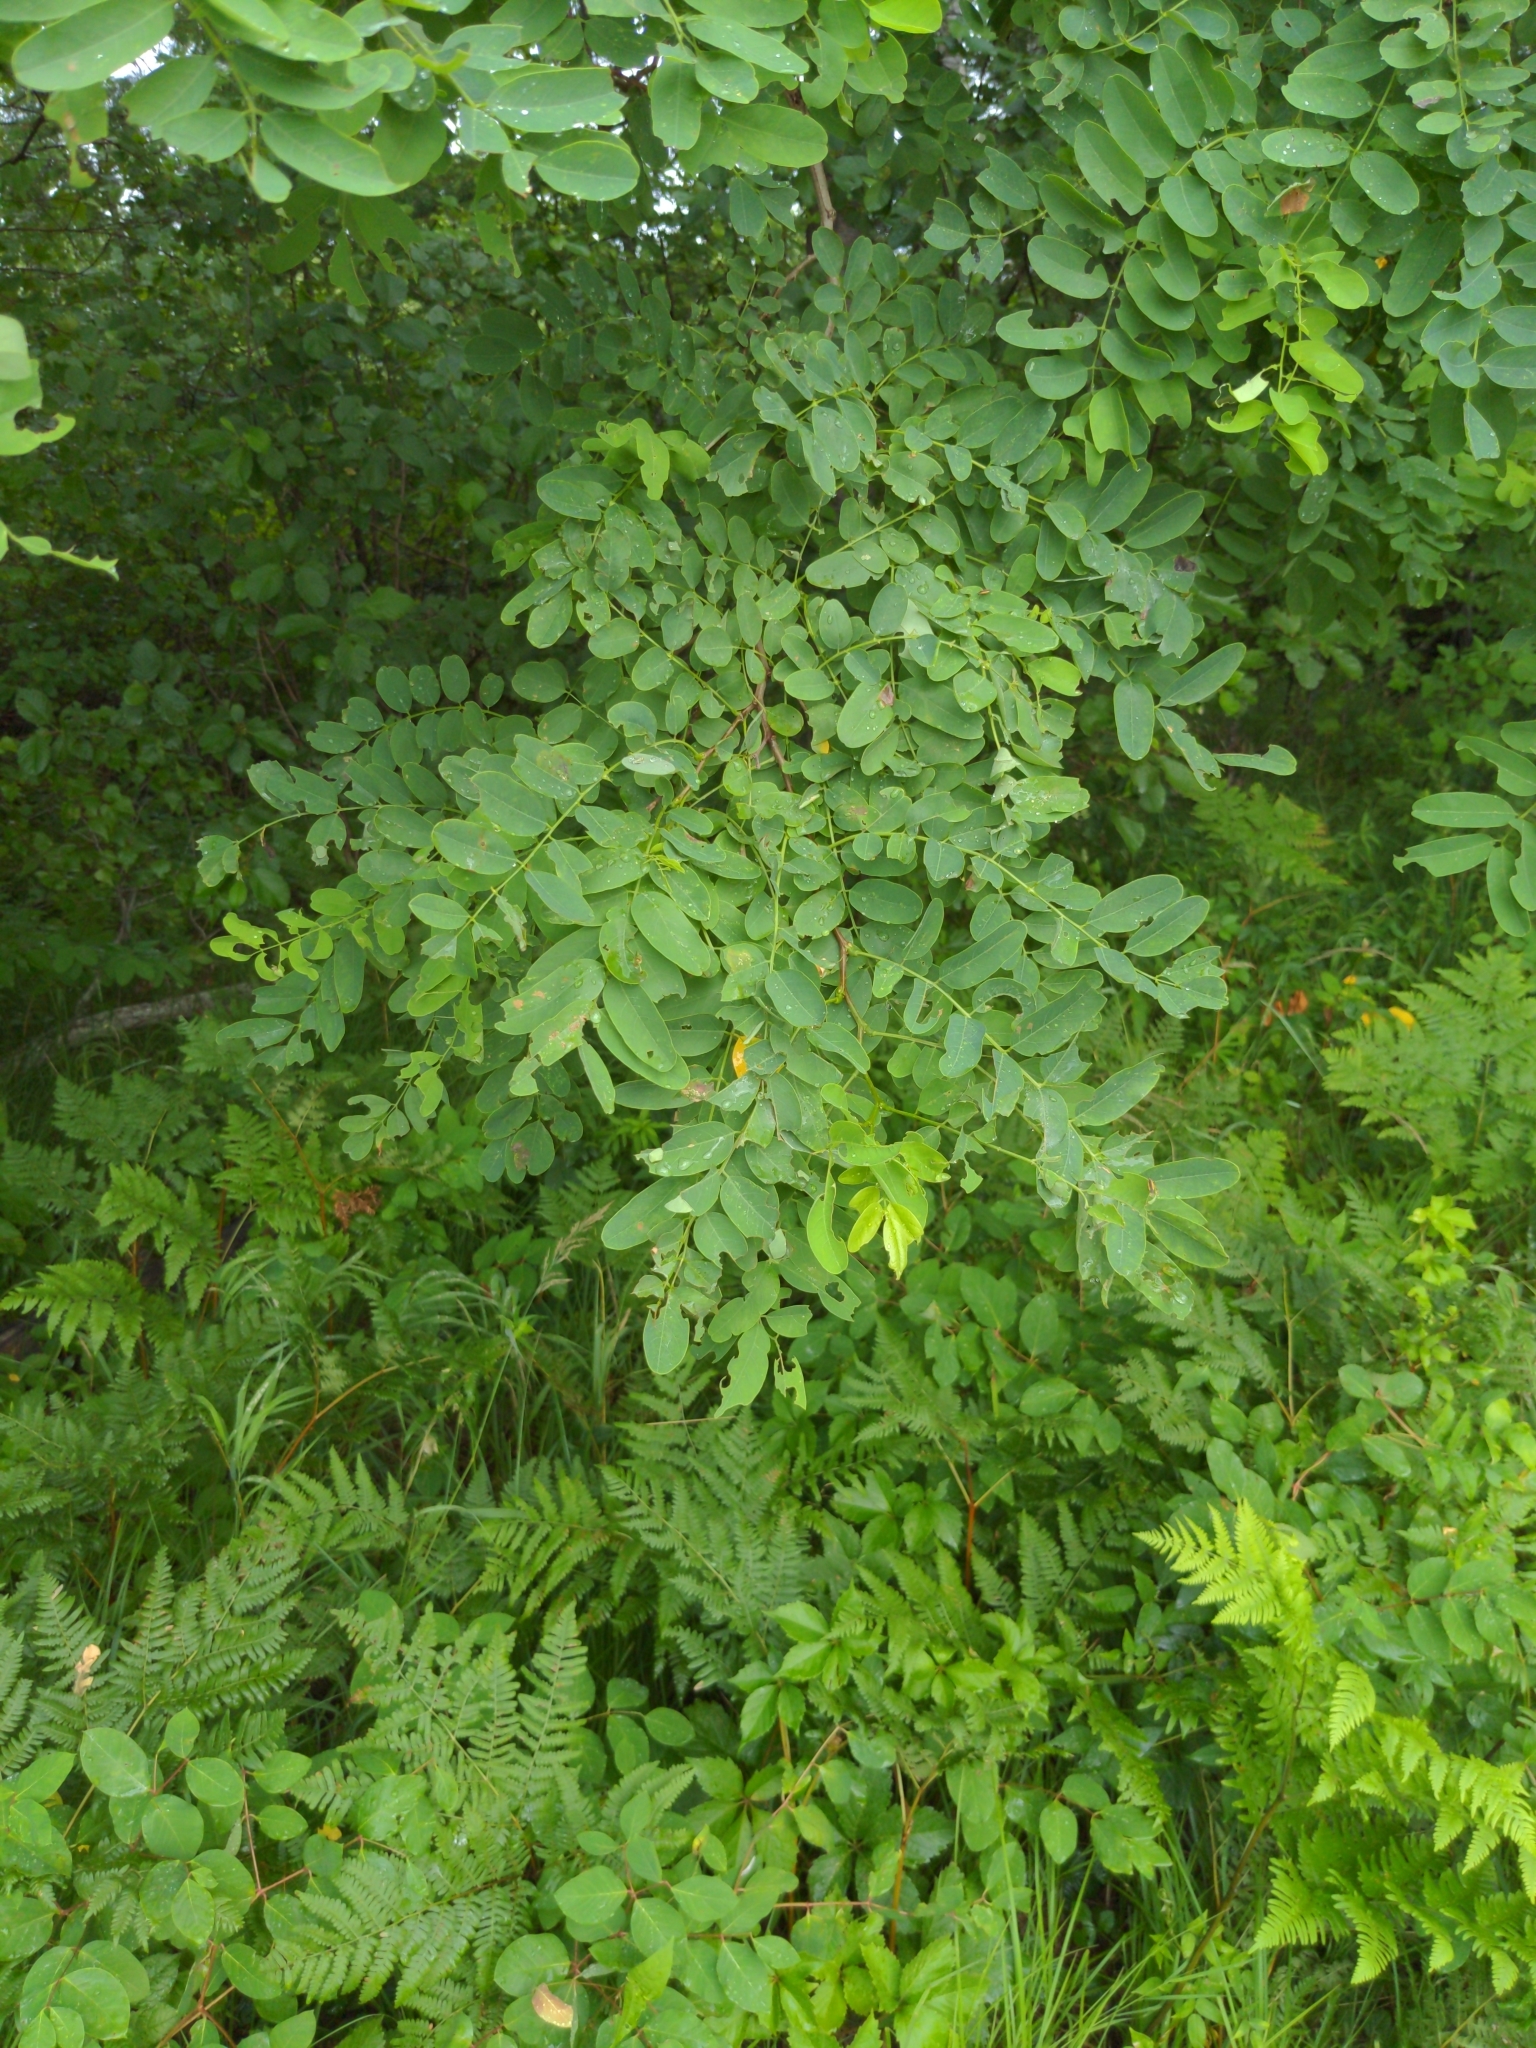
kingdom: Plantae
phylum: Tracheophyta
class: Magnoliopsida
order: Fabales
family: Fabaceae
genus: Robinia
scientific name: Robinia pseudoacacia
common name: Black locust
